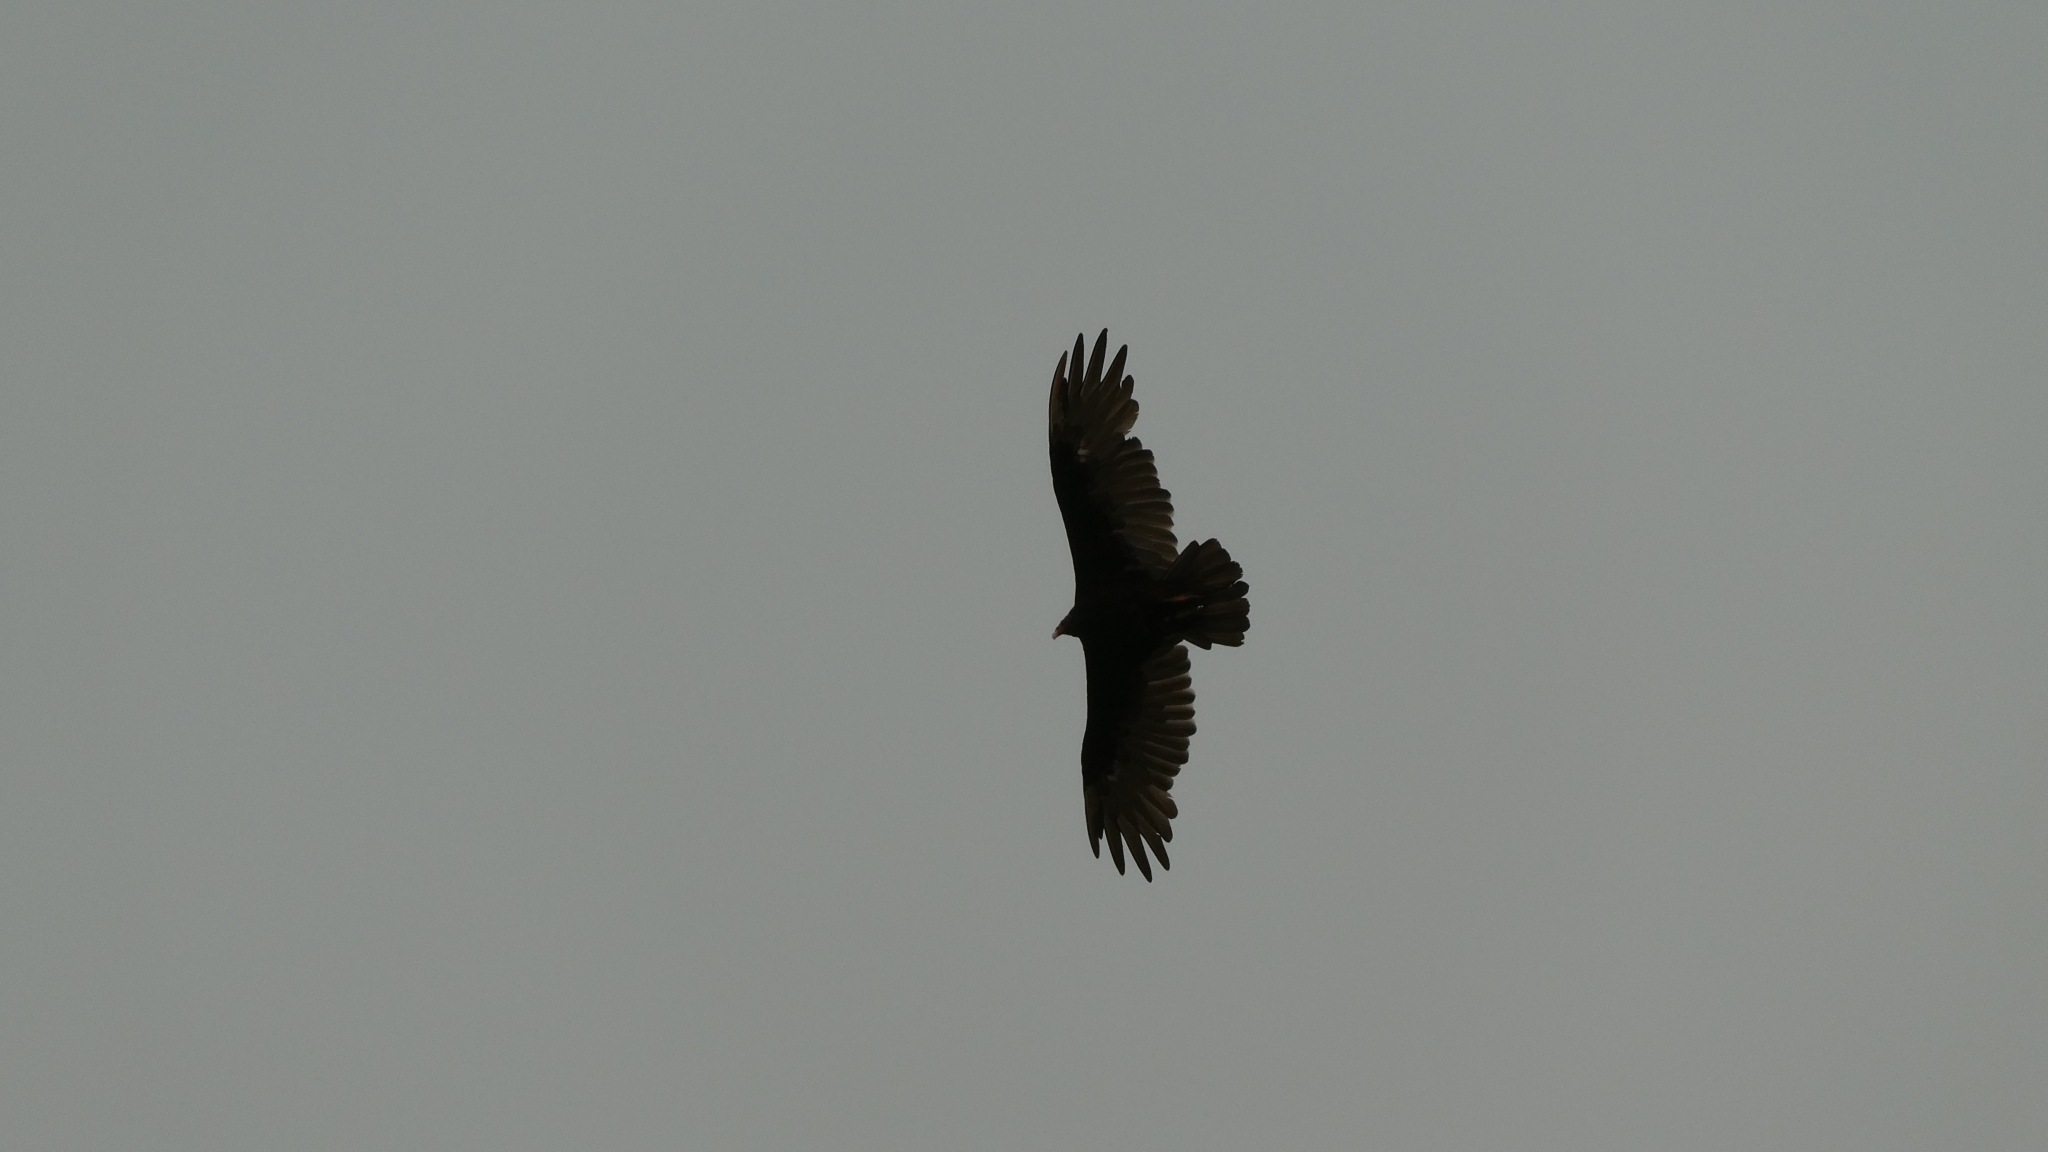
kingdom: Animalia
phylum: Chordata
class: Aves
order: Accipitriformes
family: Cathartidae
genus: Cathartes
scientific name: Cathartes aura
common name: Turkey vulture
